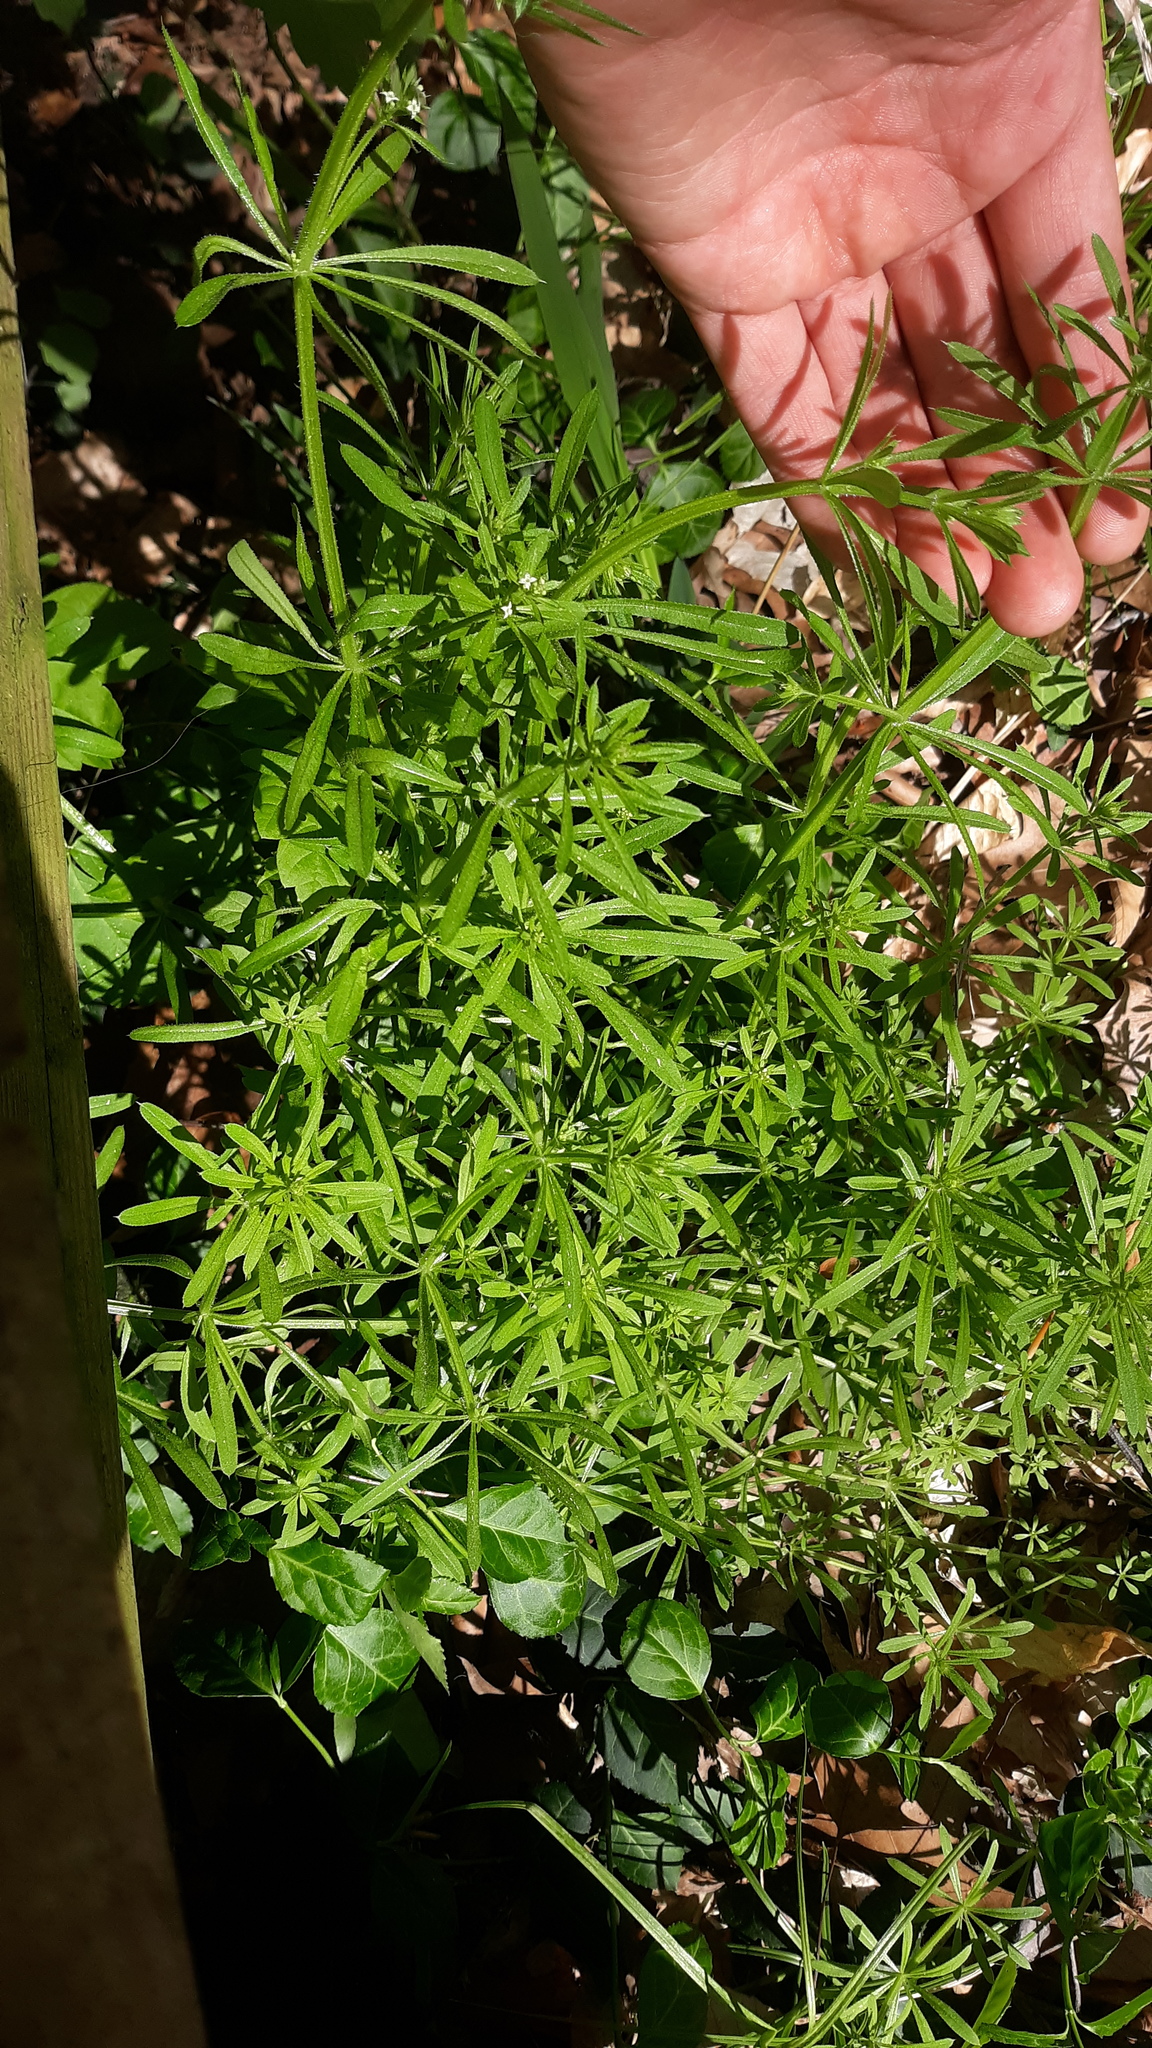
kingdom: Plantae
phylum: Tracheophyta
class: Magnoliopsida
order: Gentianales
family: Rubiaceae
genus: Galium
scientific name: Galium aparine
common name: Cleavers
